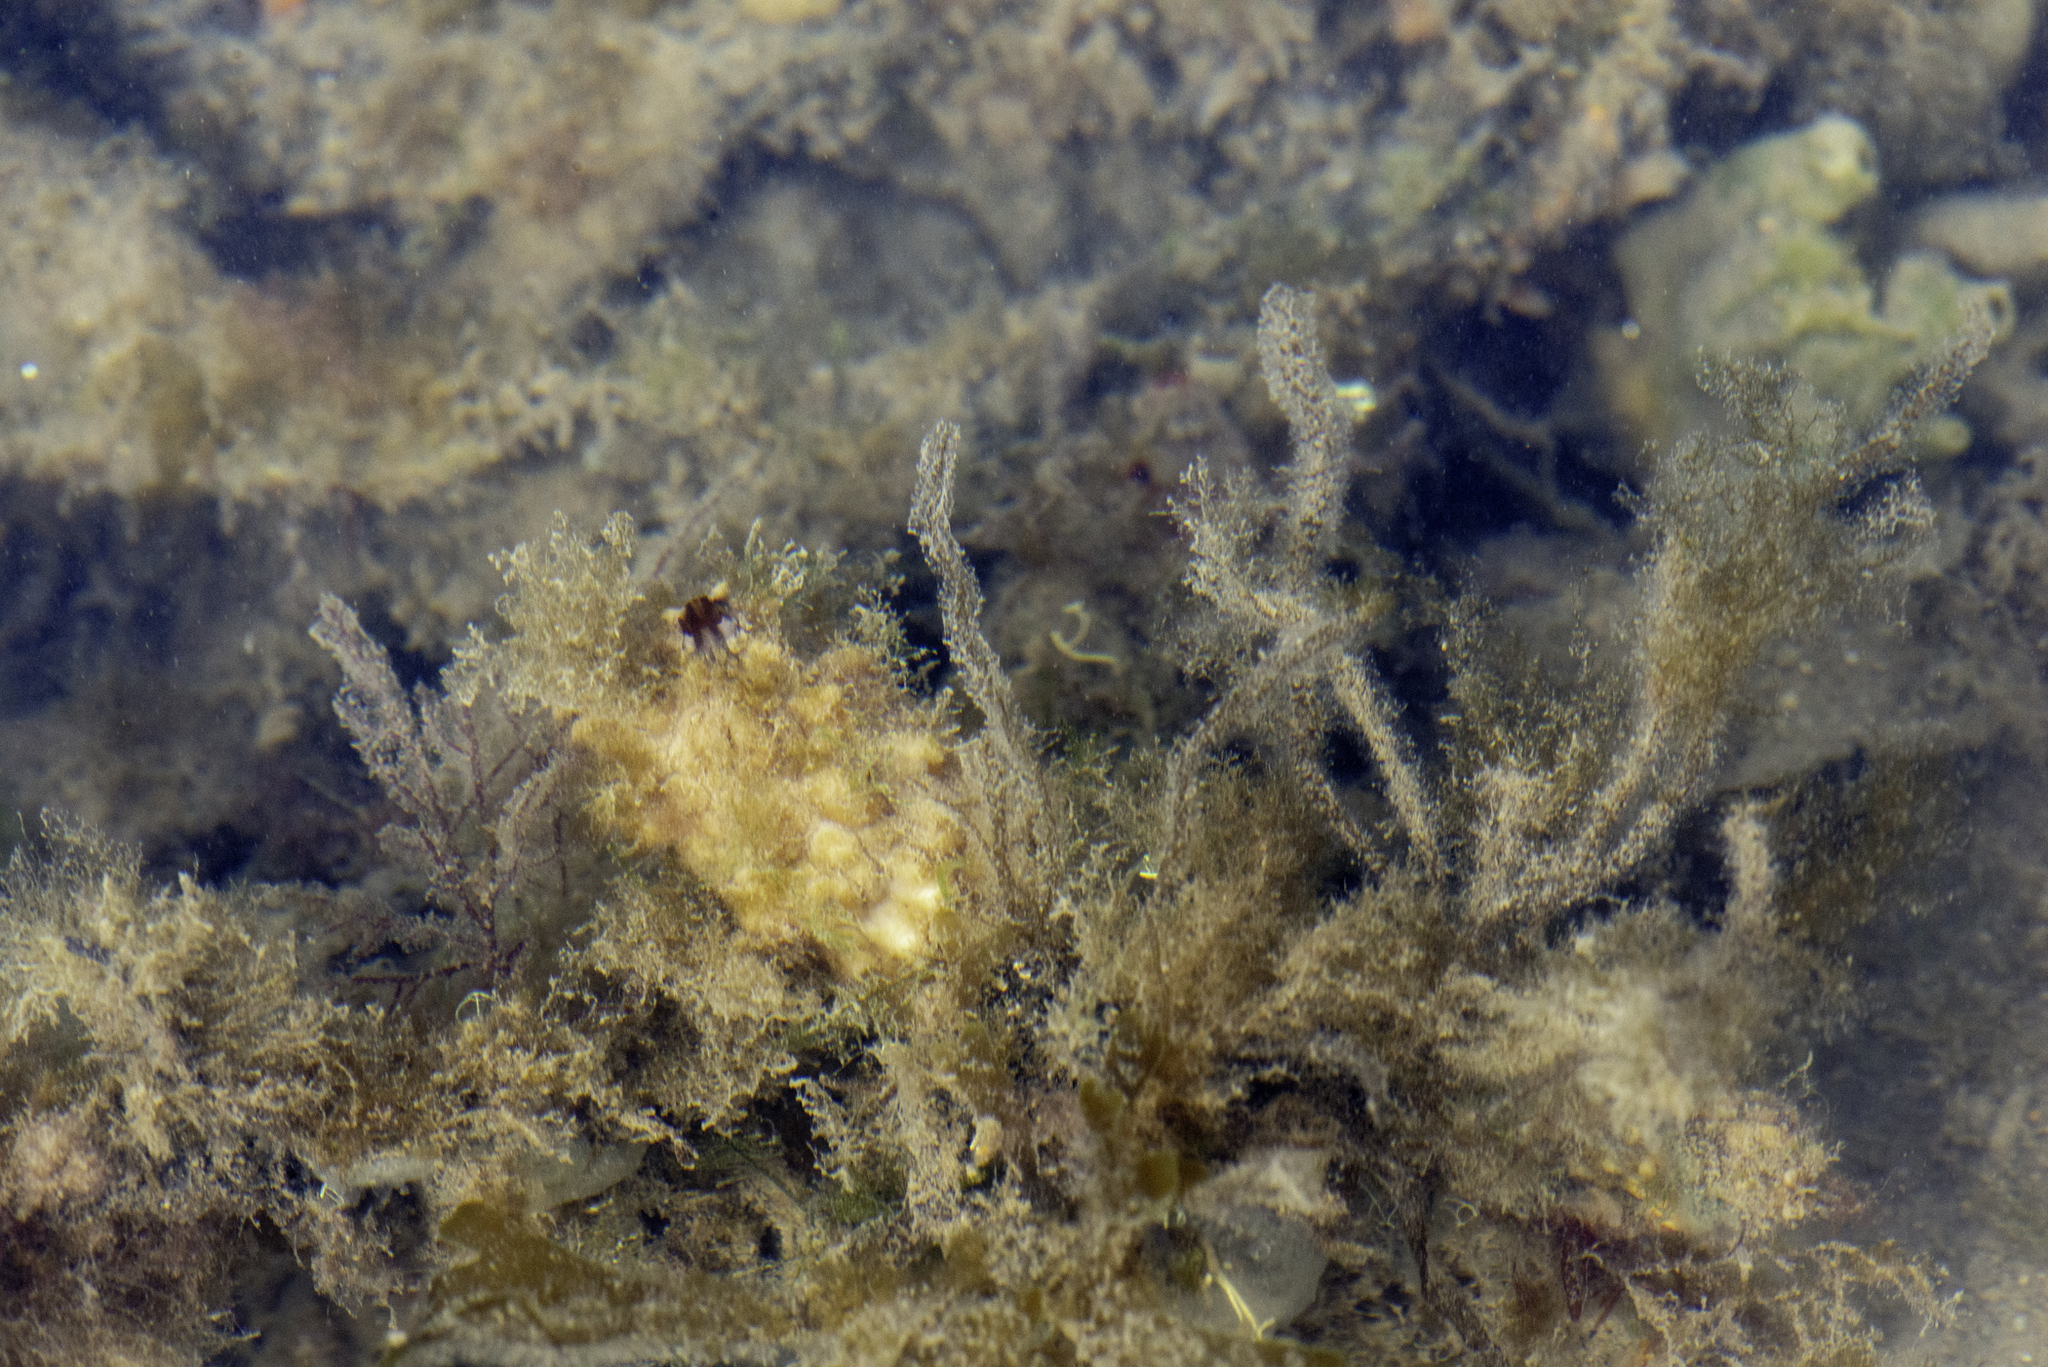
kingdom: Animalia
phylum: Chordata
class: Ascidiacea
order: Stolidobranchia
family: Styelidae
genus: Styela
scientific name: Styela clava
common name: Leathery sea squirt
